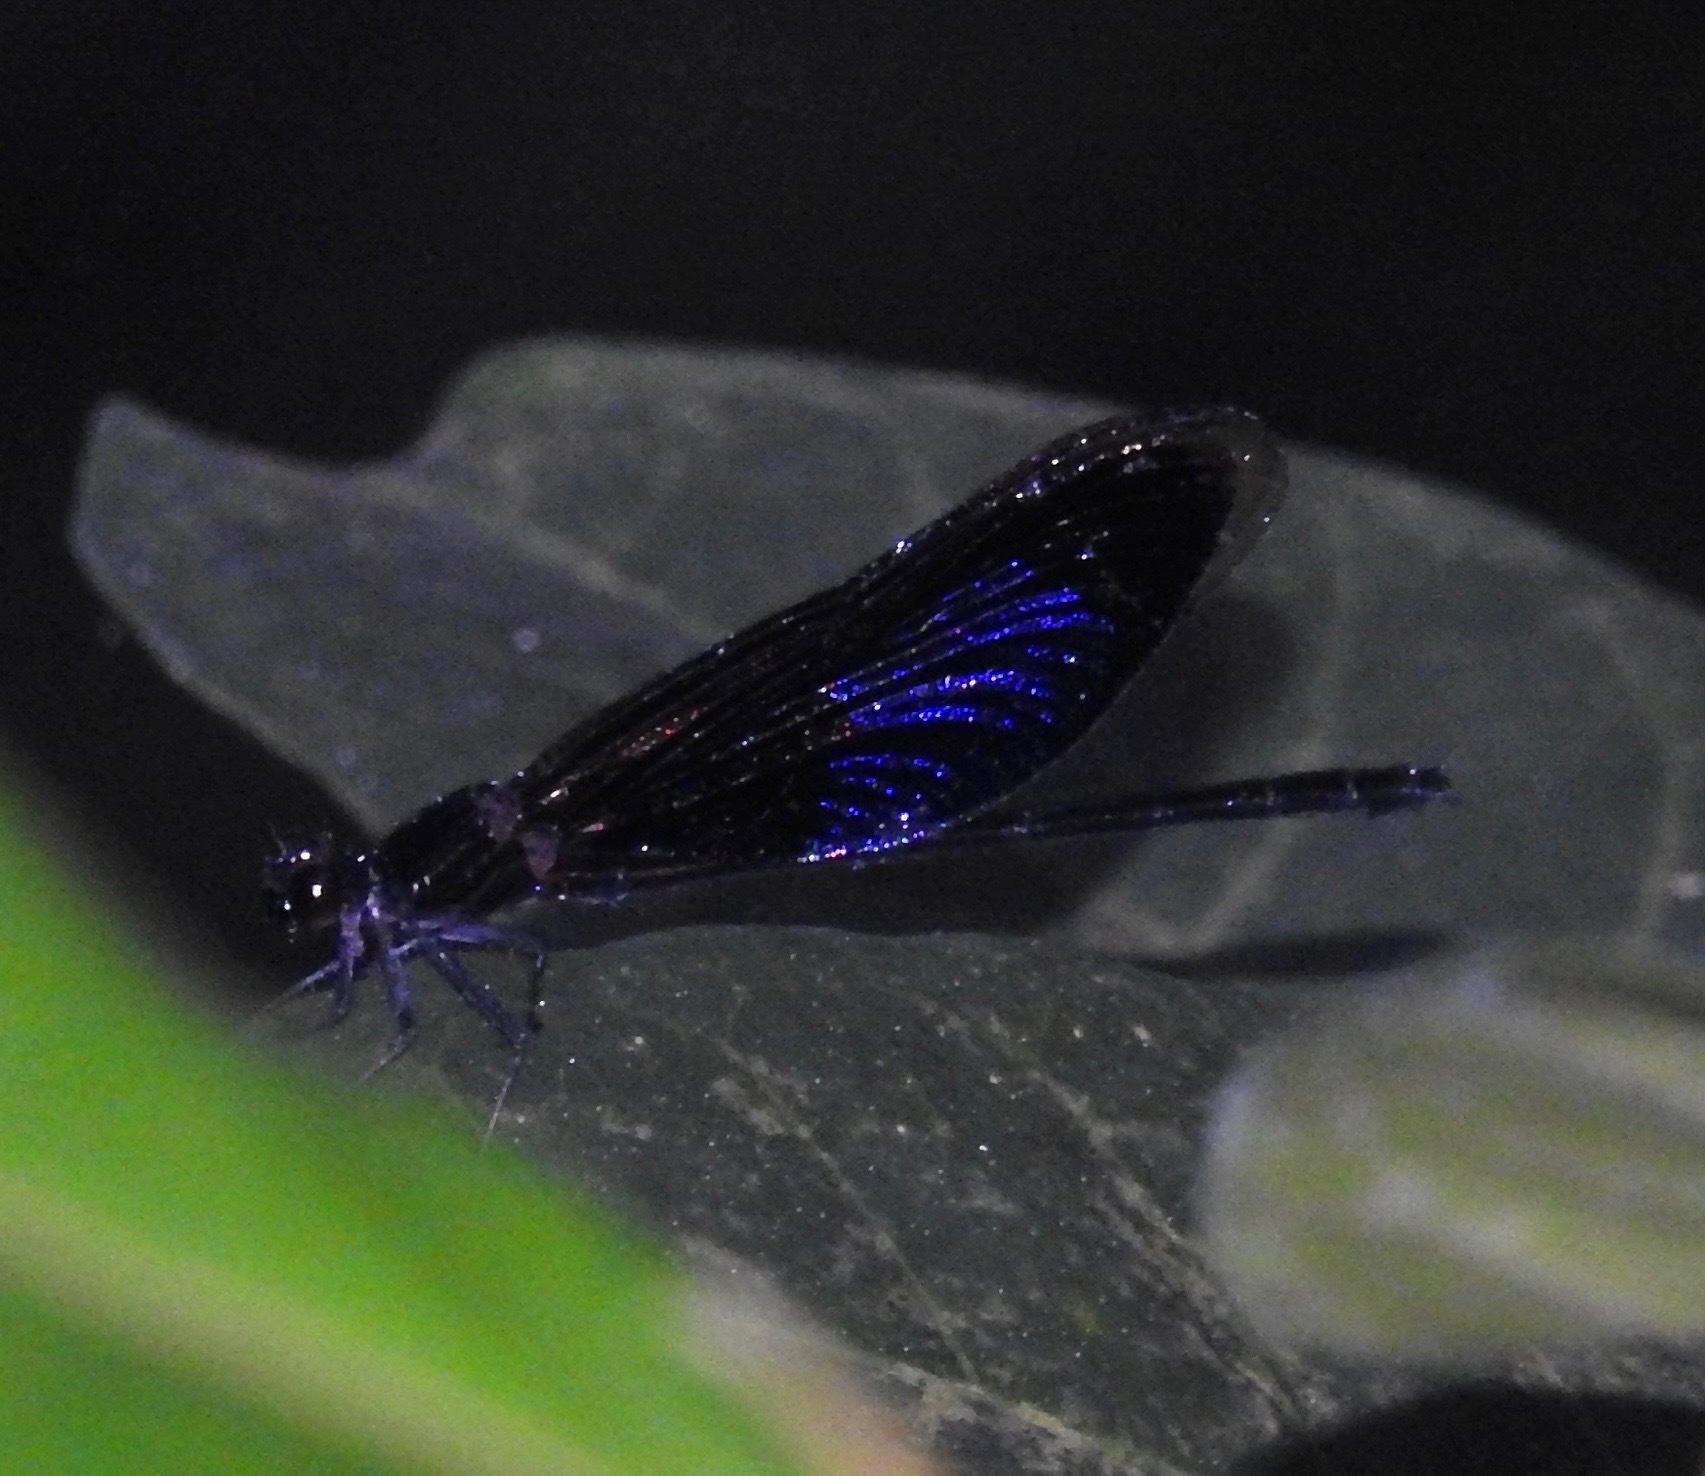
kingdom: Animalia
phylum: Arthropoda
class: Insecta
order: Odonata
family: Euphaeidae
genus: Euphaea
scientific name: Euphaea guerini
